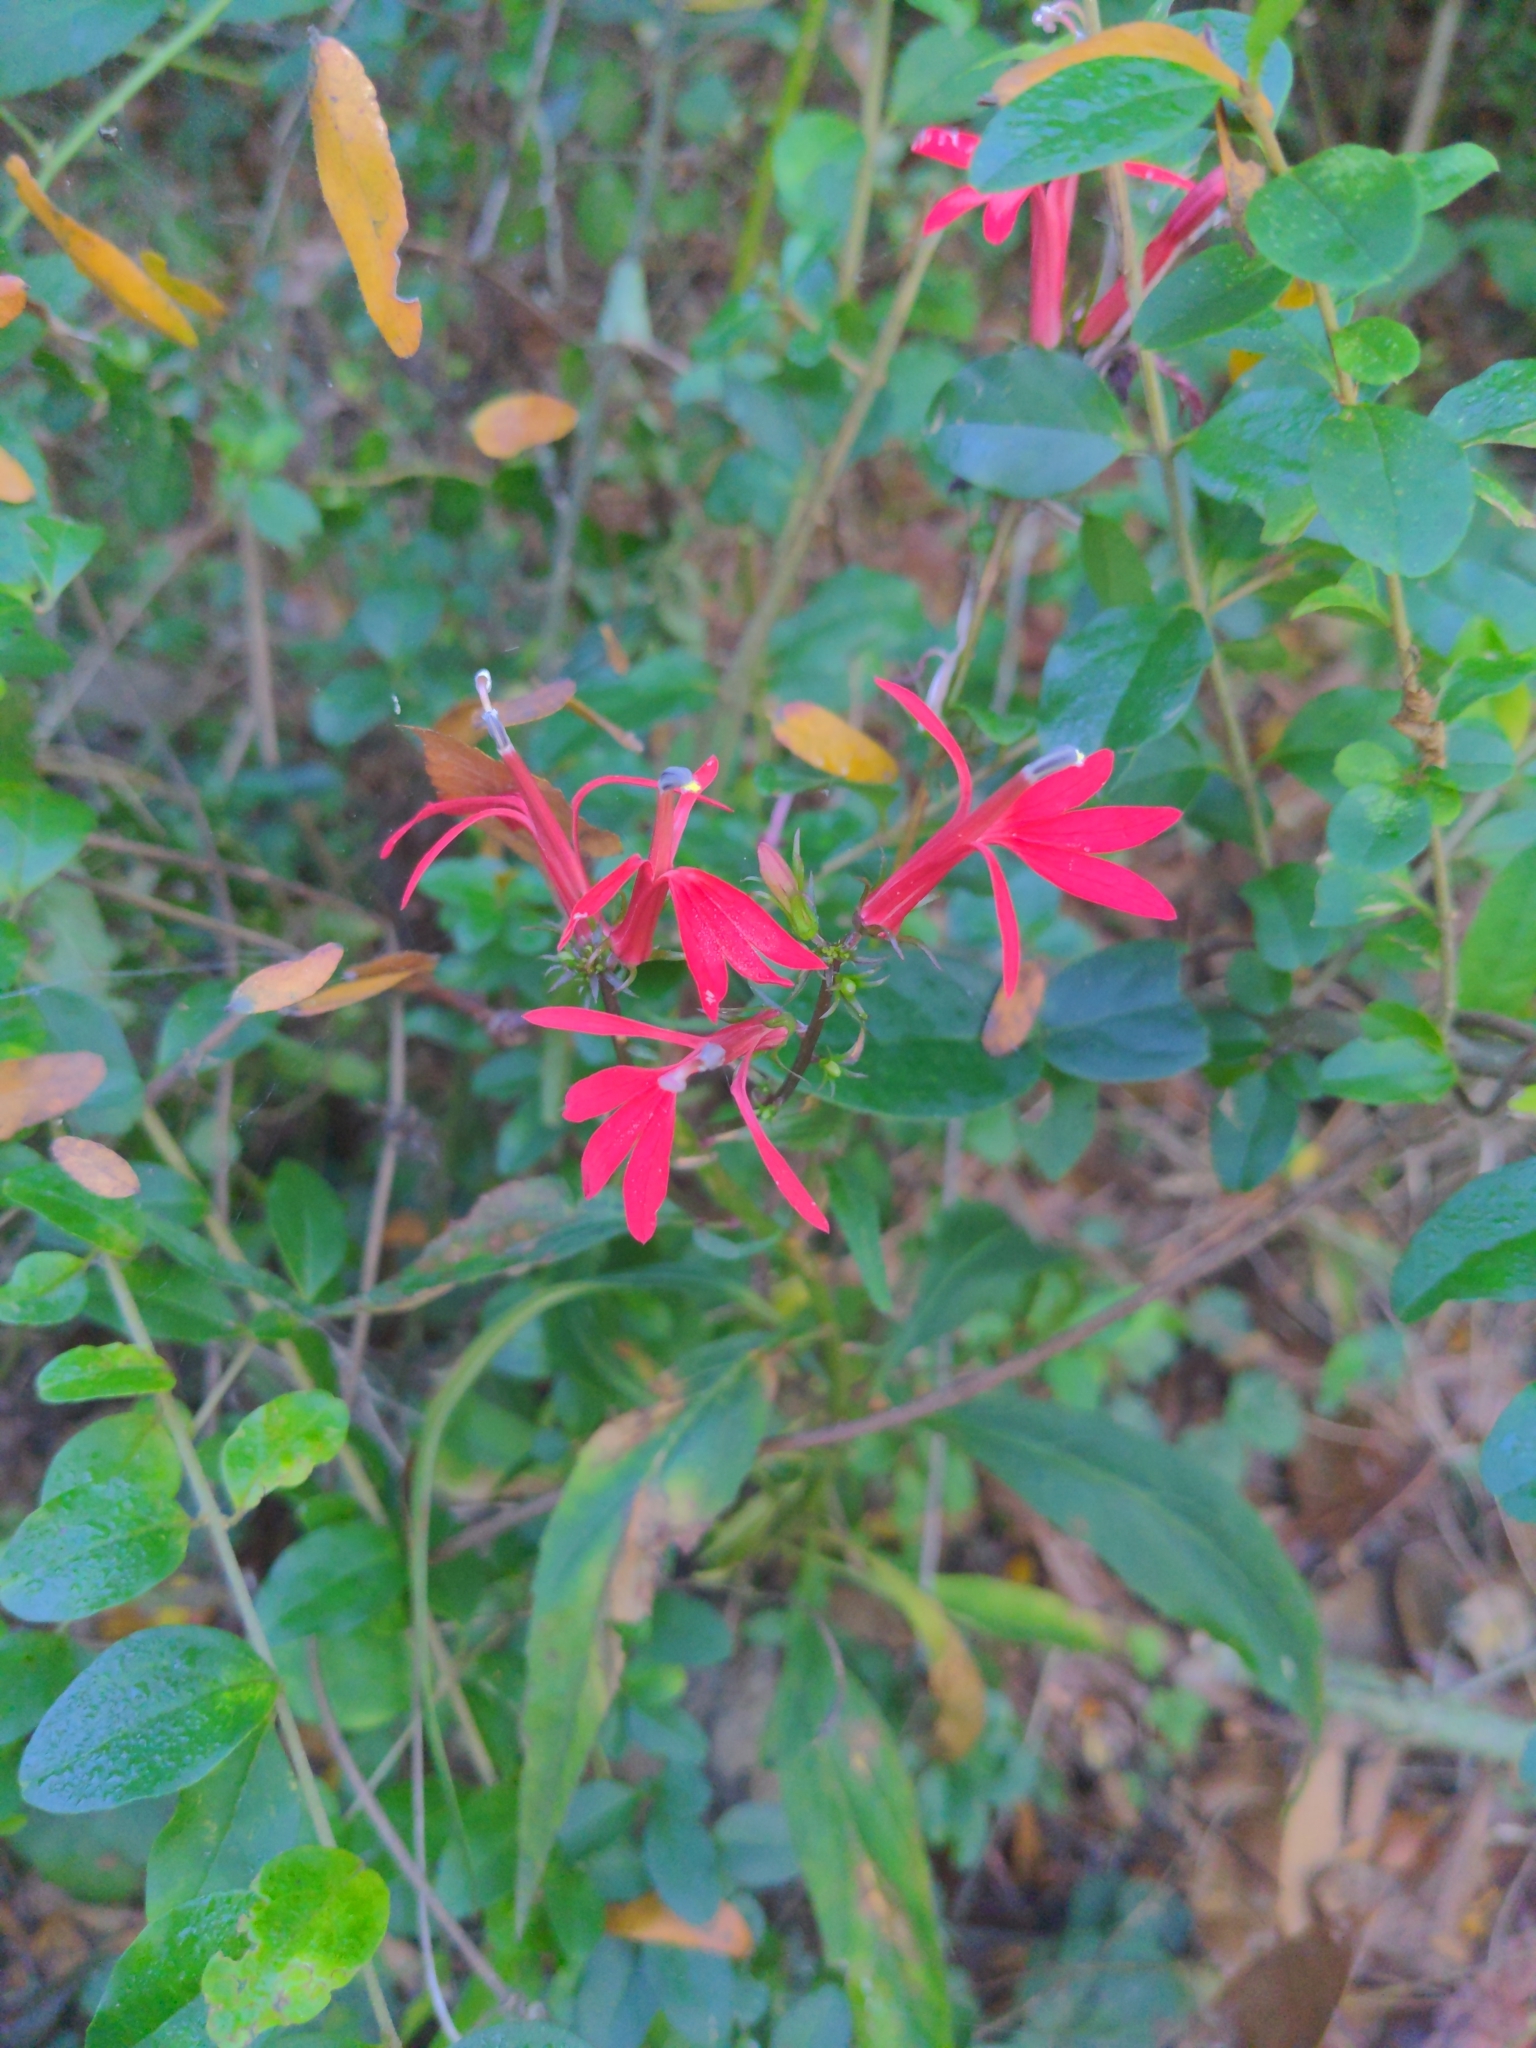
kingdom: Plantae
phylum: Tracheophyta
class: Magnoliopsida
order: Asterales
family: Campanulaceae
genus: Lobelia
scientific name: Lobelia cardinalis
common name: Cardinal flower
